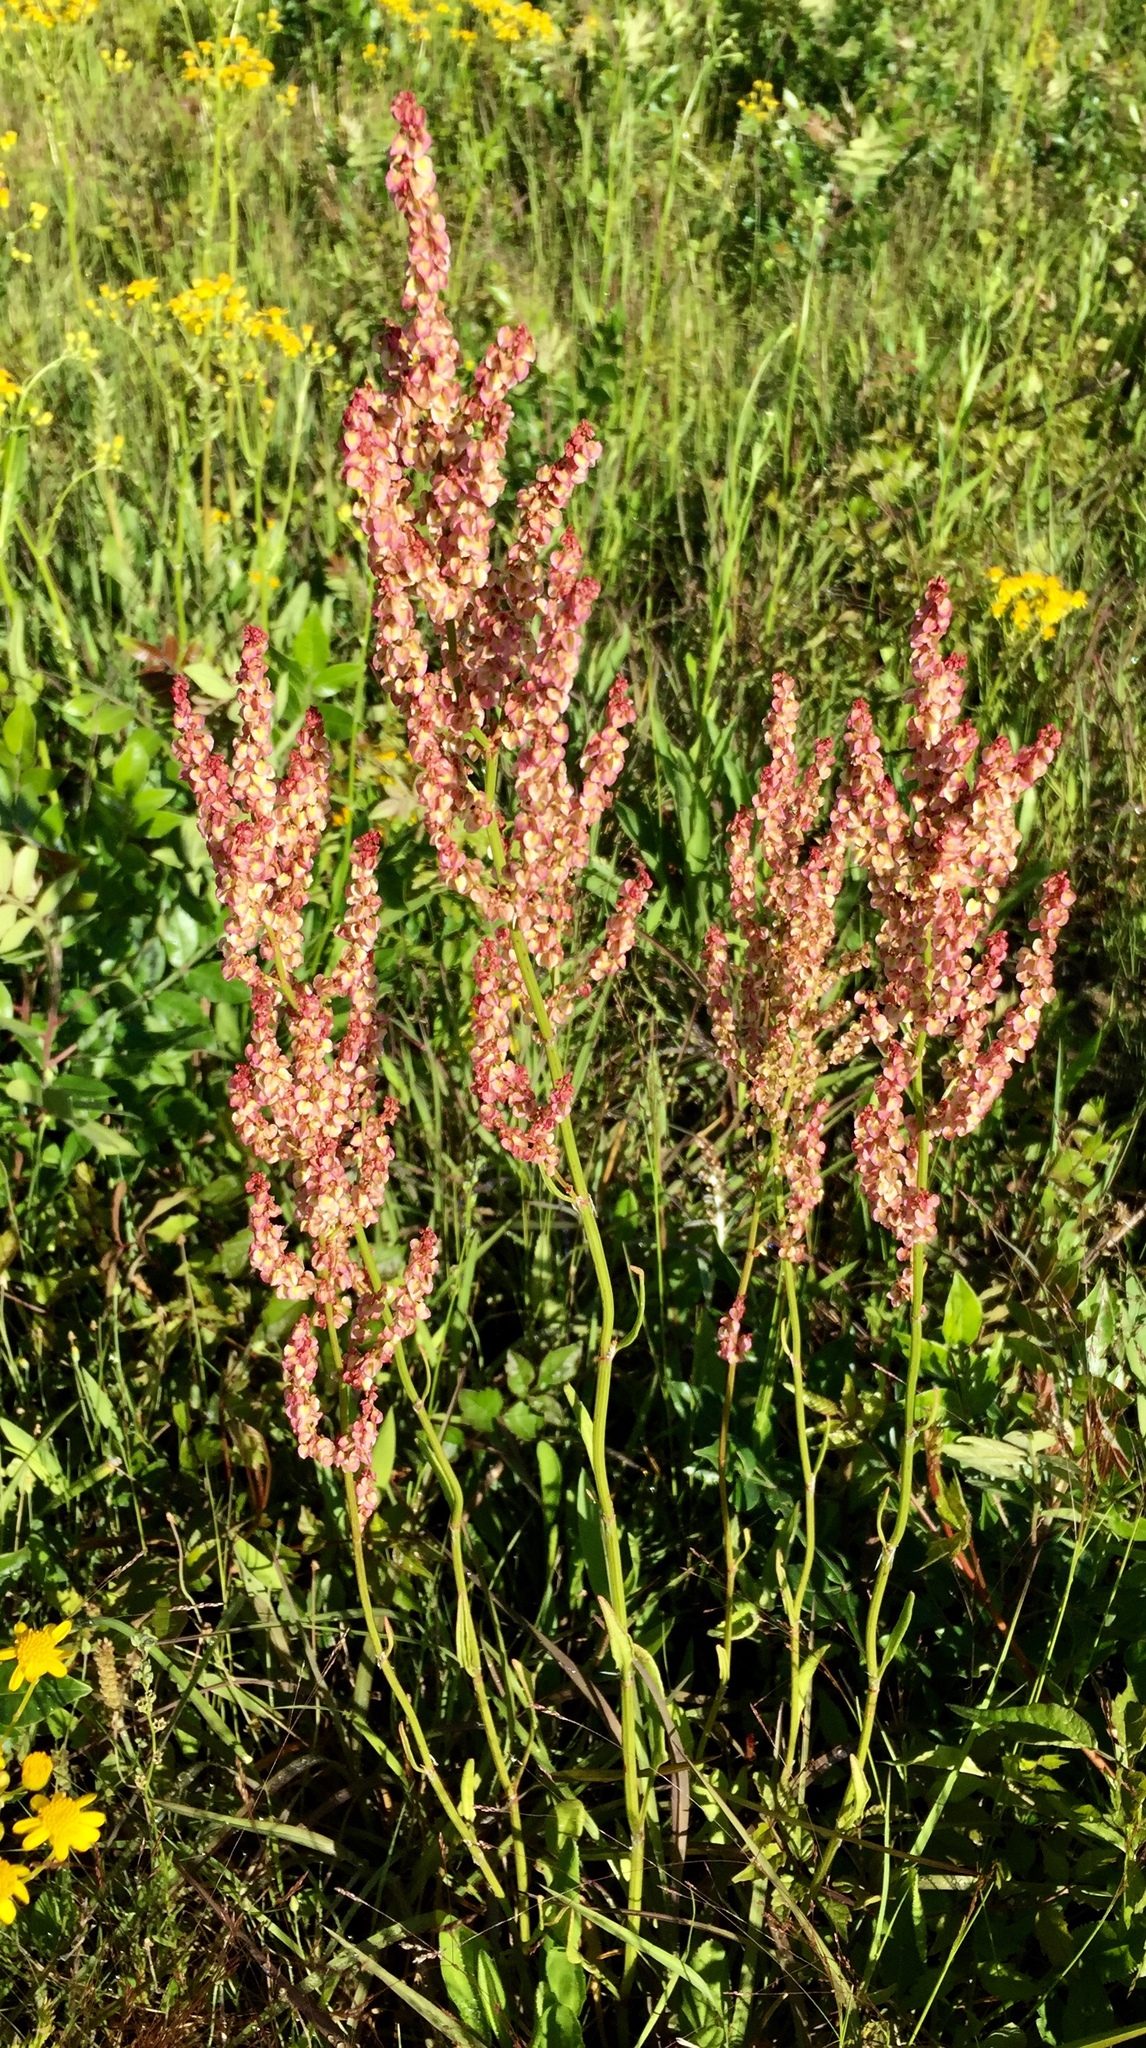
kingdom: Plantae
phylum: Tracheophyta
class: Magnoliopsida
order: Caryophyllales
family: Polygonaceae
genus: Rumex
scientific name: Rumex hastatulus
